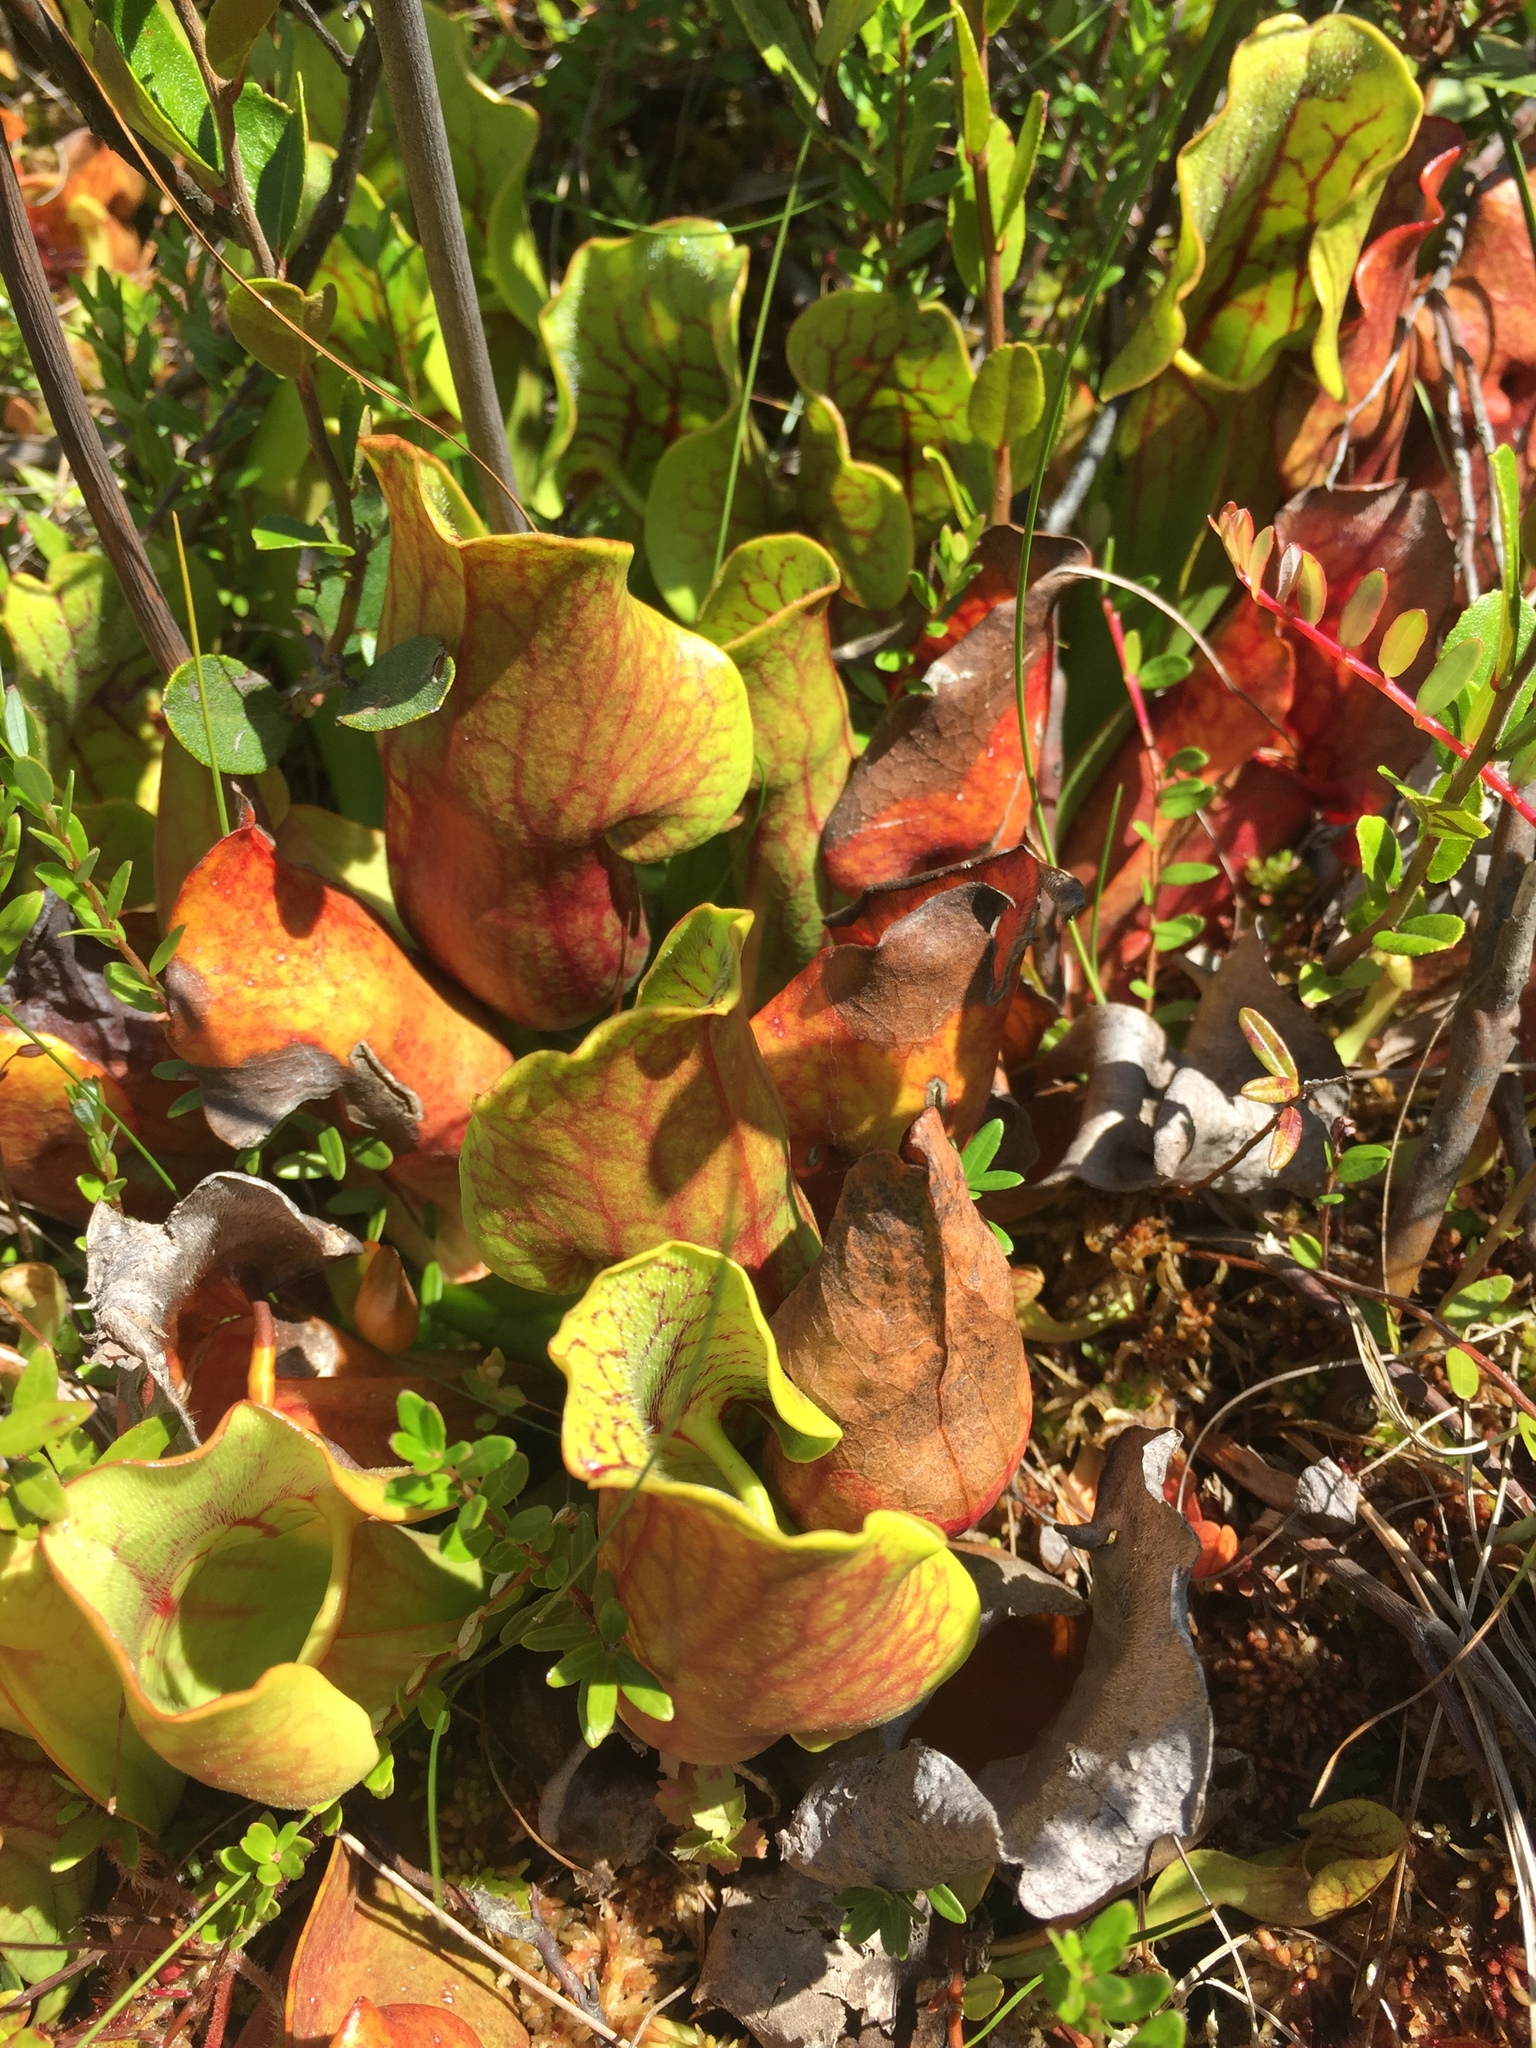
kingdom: Plantae
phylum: Tracheophyta
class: Magnoliopsida
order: Ericales
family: Sarraceniaceae
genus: Sarracenia
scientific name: Sarracenia purpurea
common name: Pitcherplant
